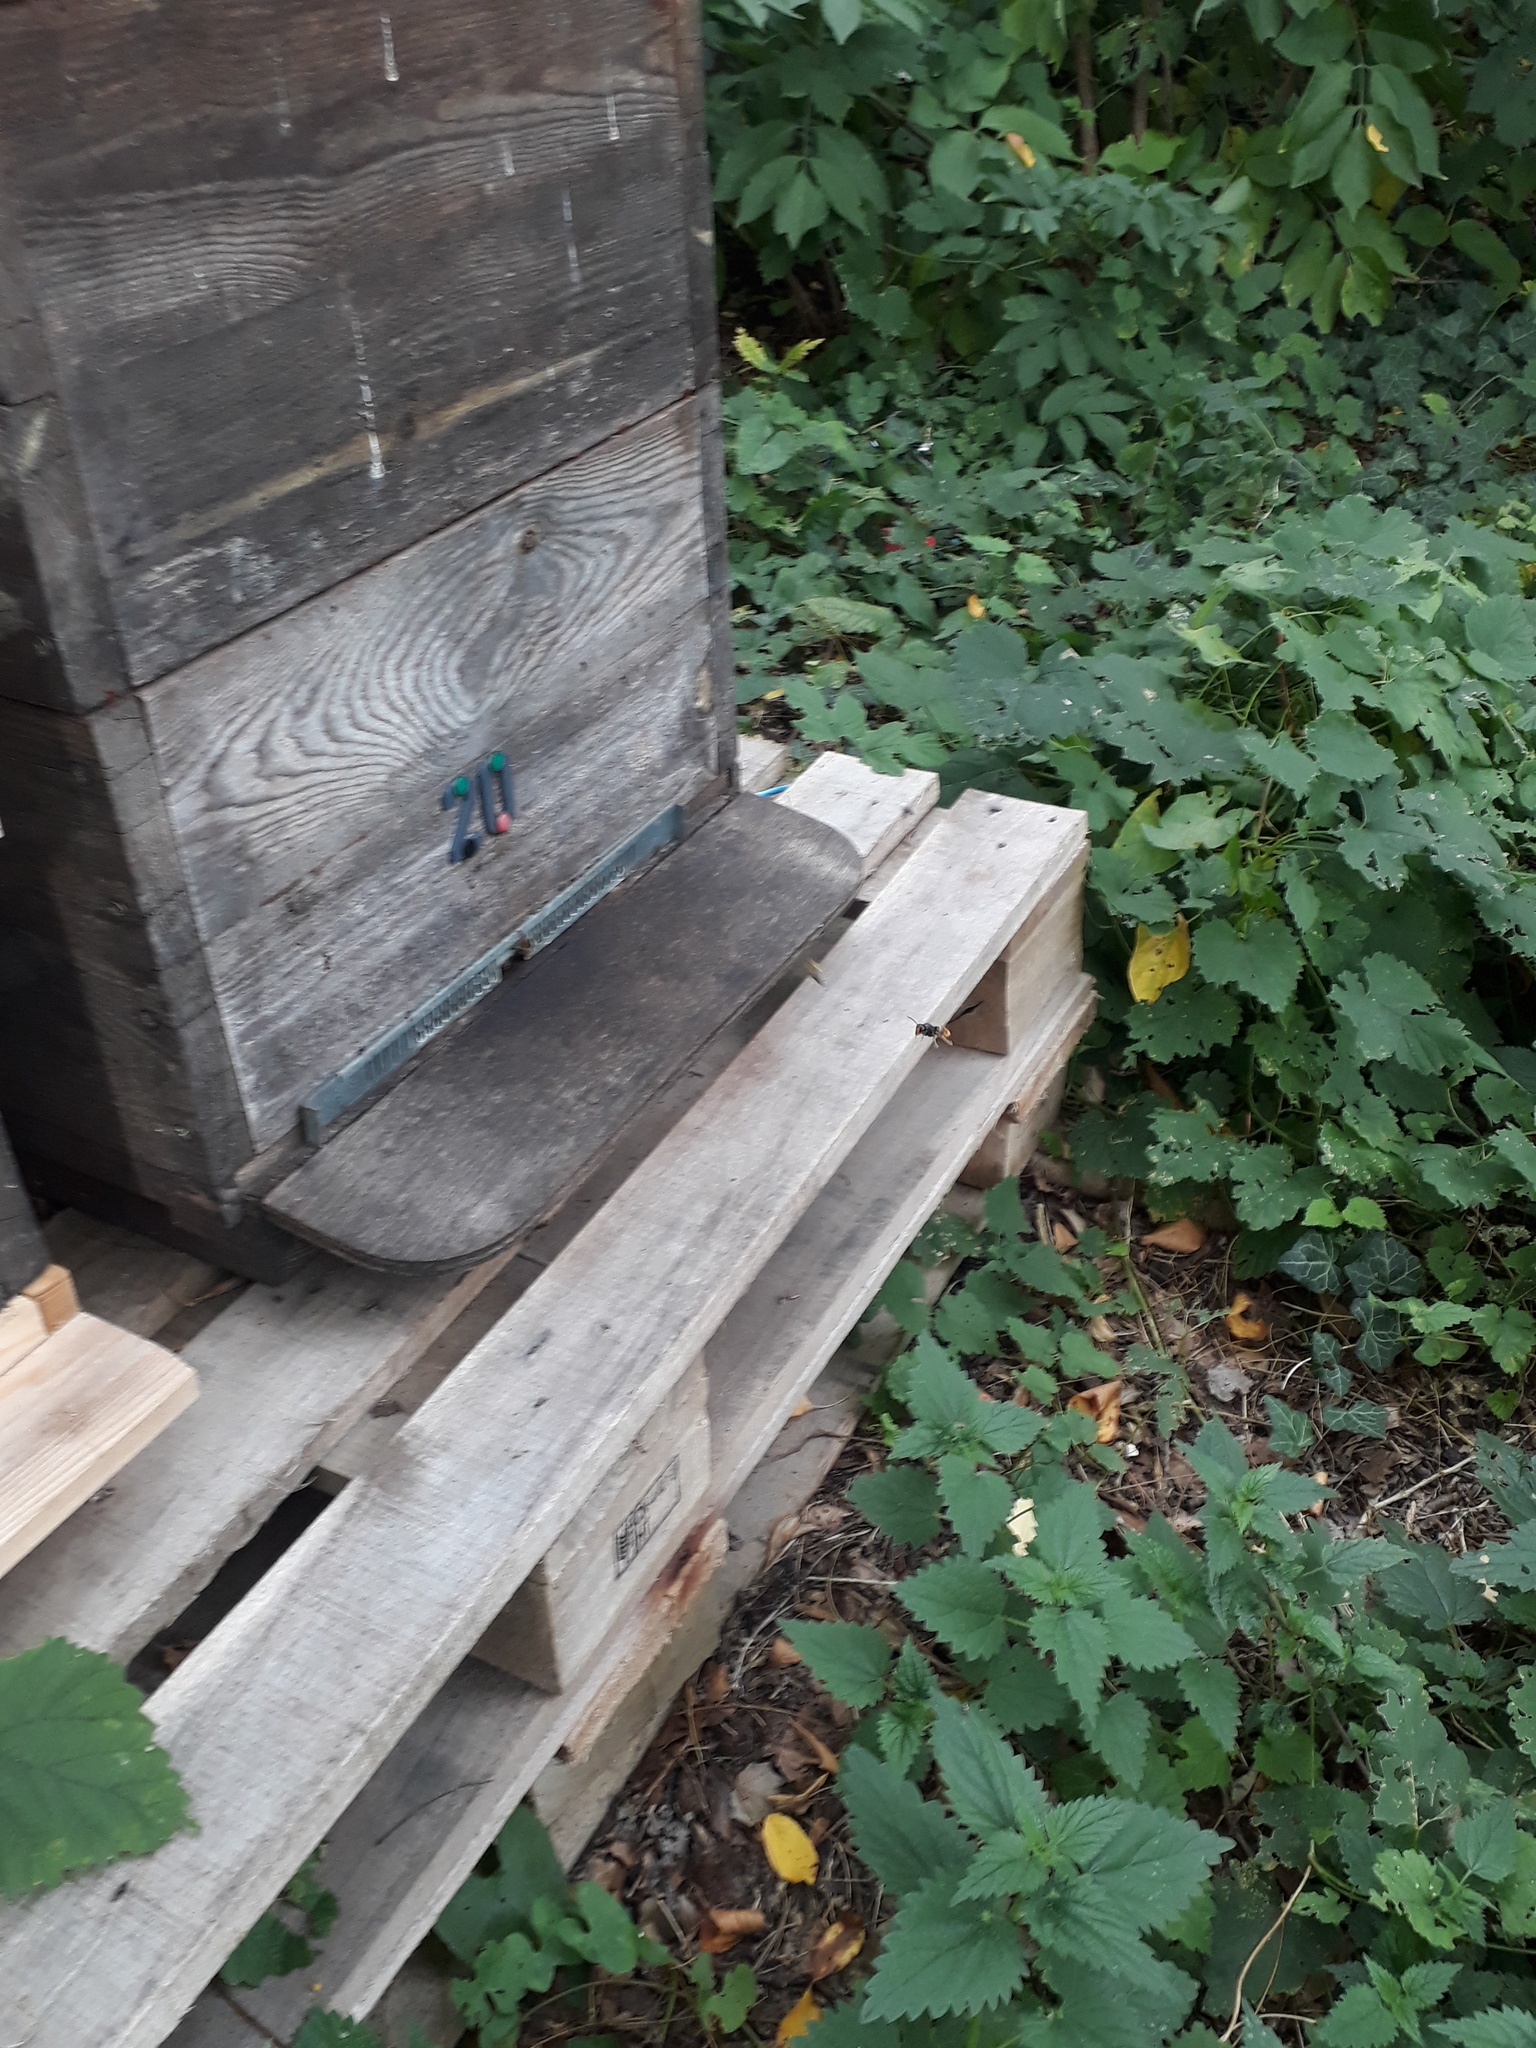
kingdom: Animalia
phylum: Arthropoda
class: Insecta
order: Hymenoptera
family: Vespidae
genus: Vespa
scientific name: Vespa velutina
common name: Asian hornet
